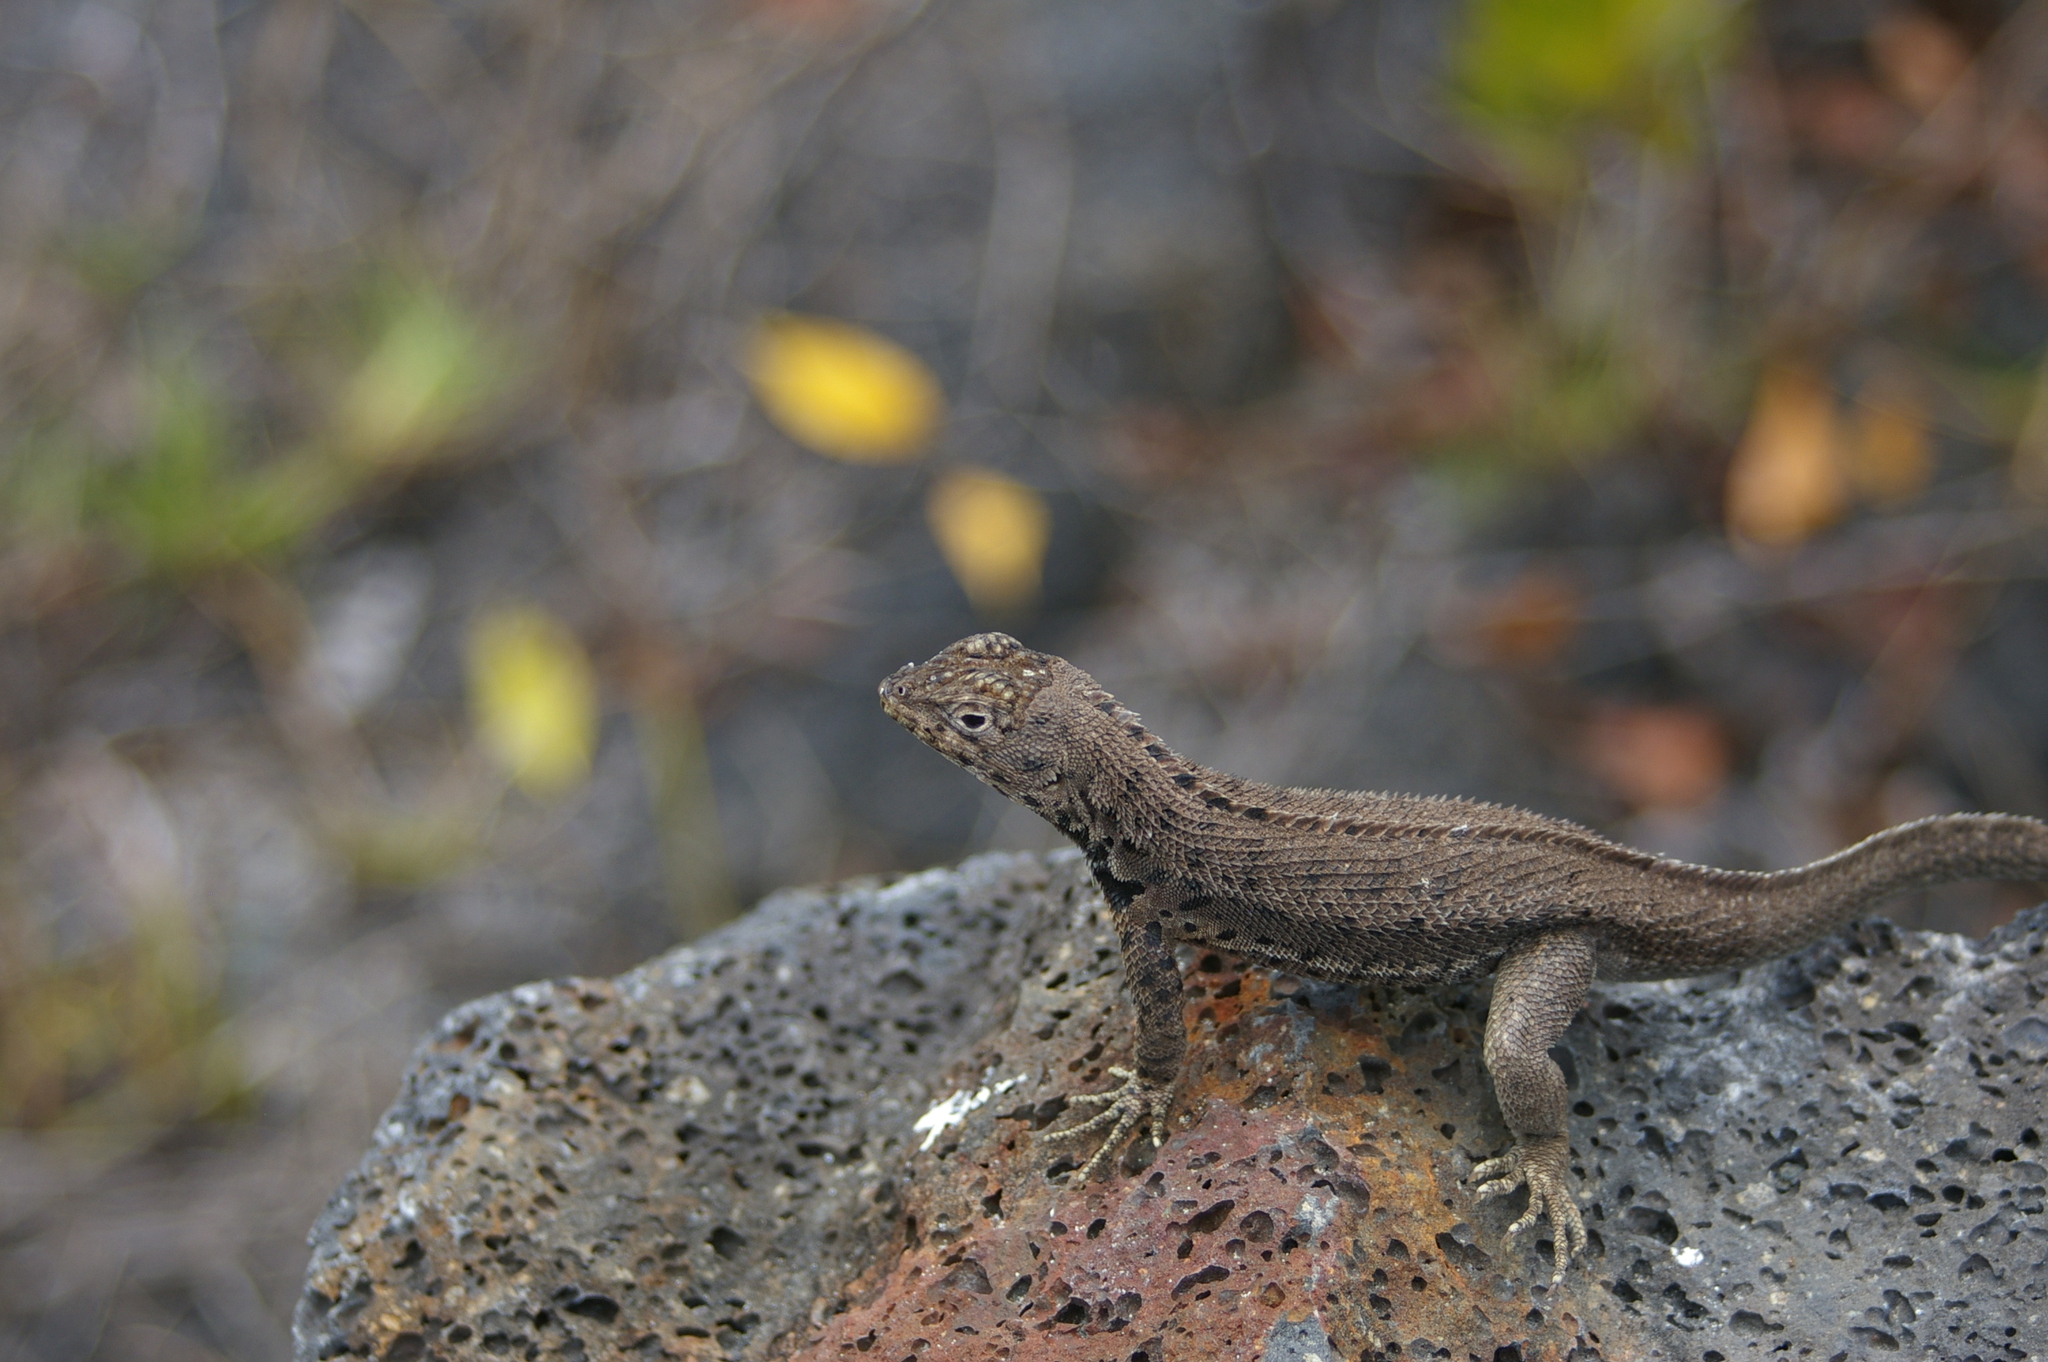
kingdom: Animalia
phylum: Chordata
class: Squamata
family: Tropiduridae
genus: Microlophus
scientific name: Microlophus albemarlensis
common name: Galapagos lava lizard
